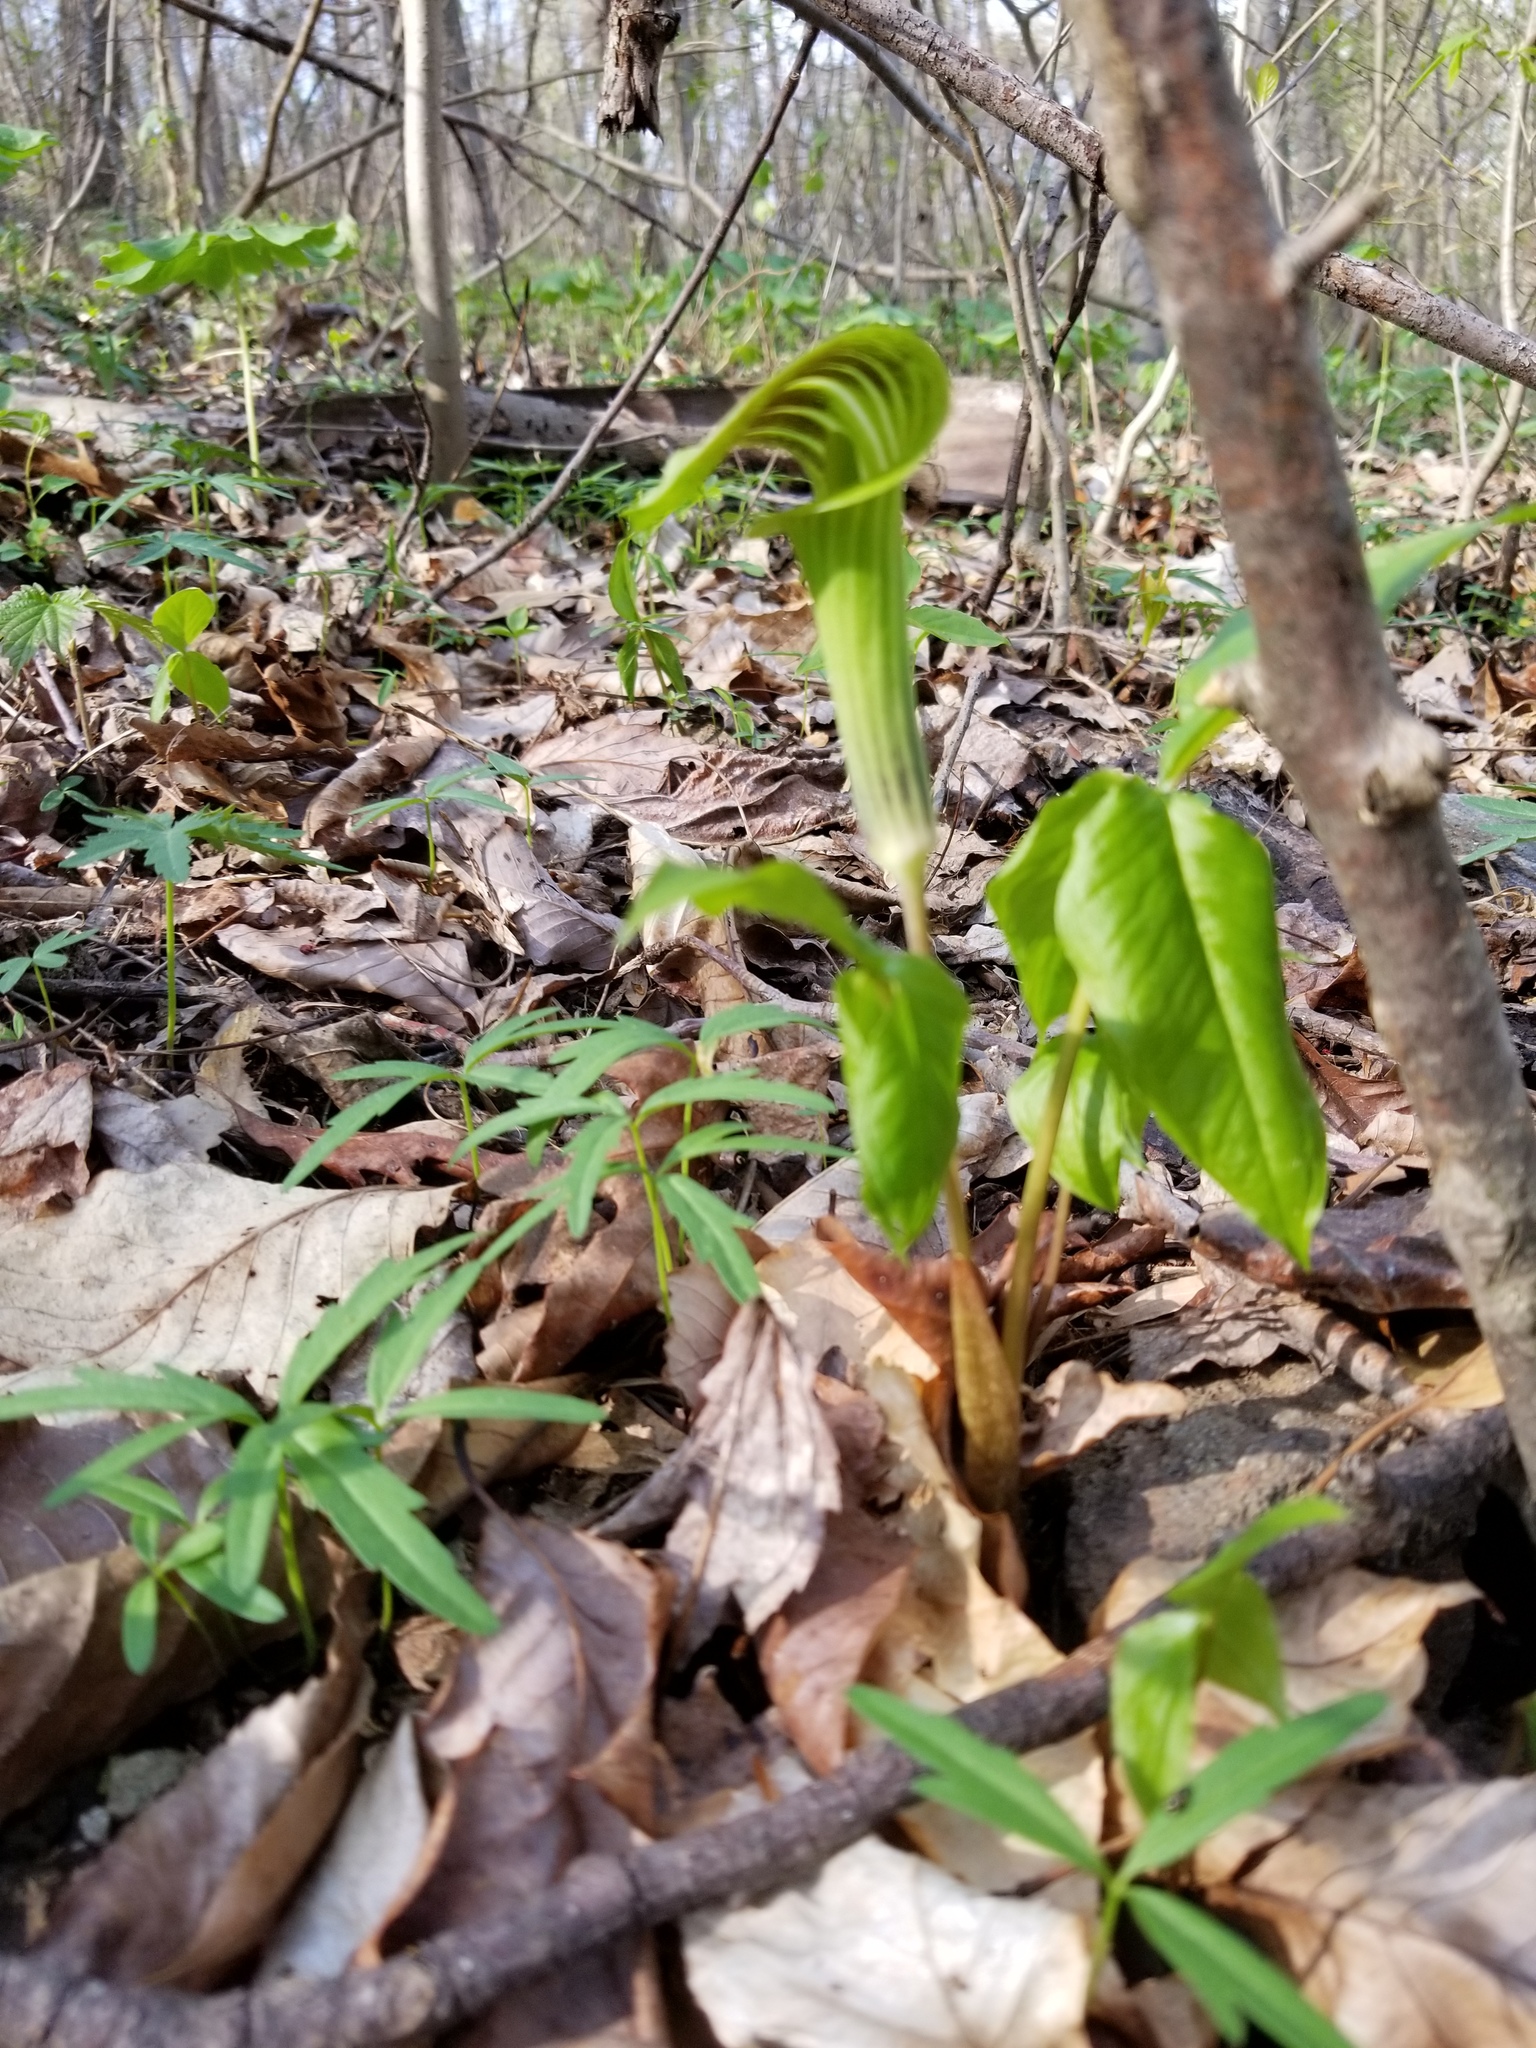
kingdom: Plantae
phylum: Tracheophyta
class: Liliopsida
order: Alismatales
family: Araceae
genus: Arisaema
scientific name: Arisaema triphyllum
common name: Jack-in-the-pulpit
